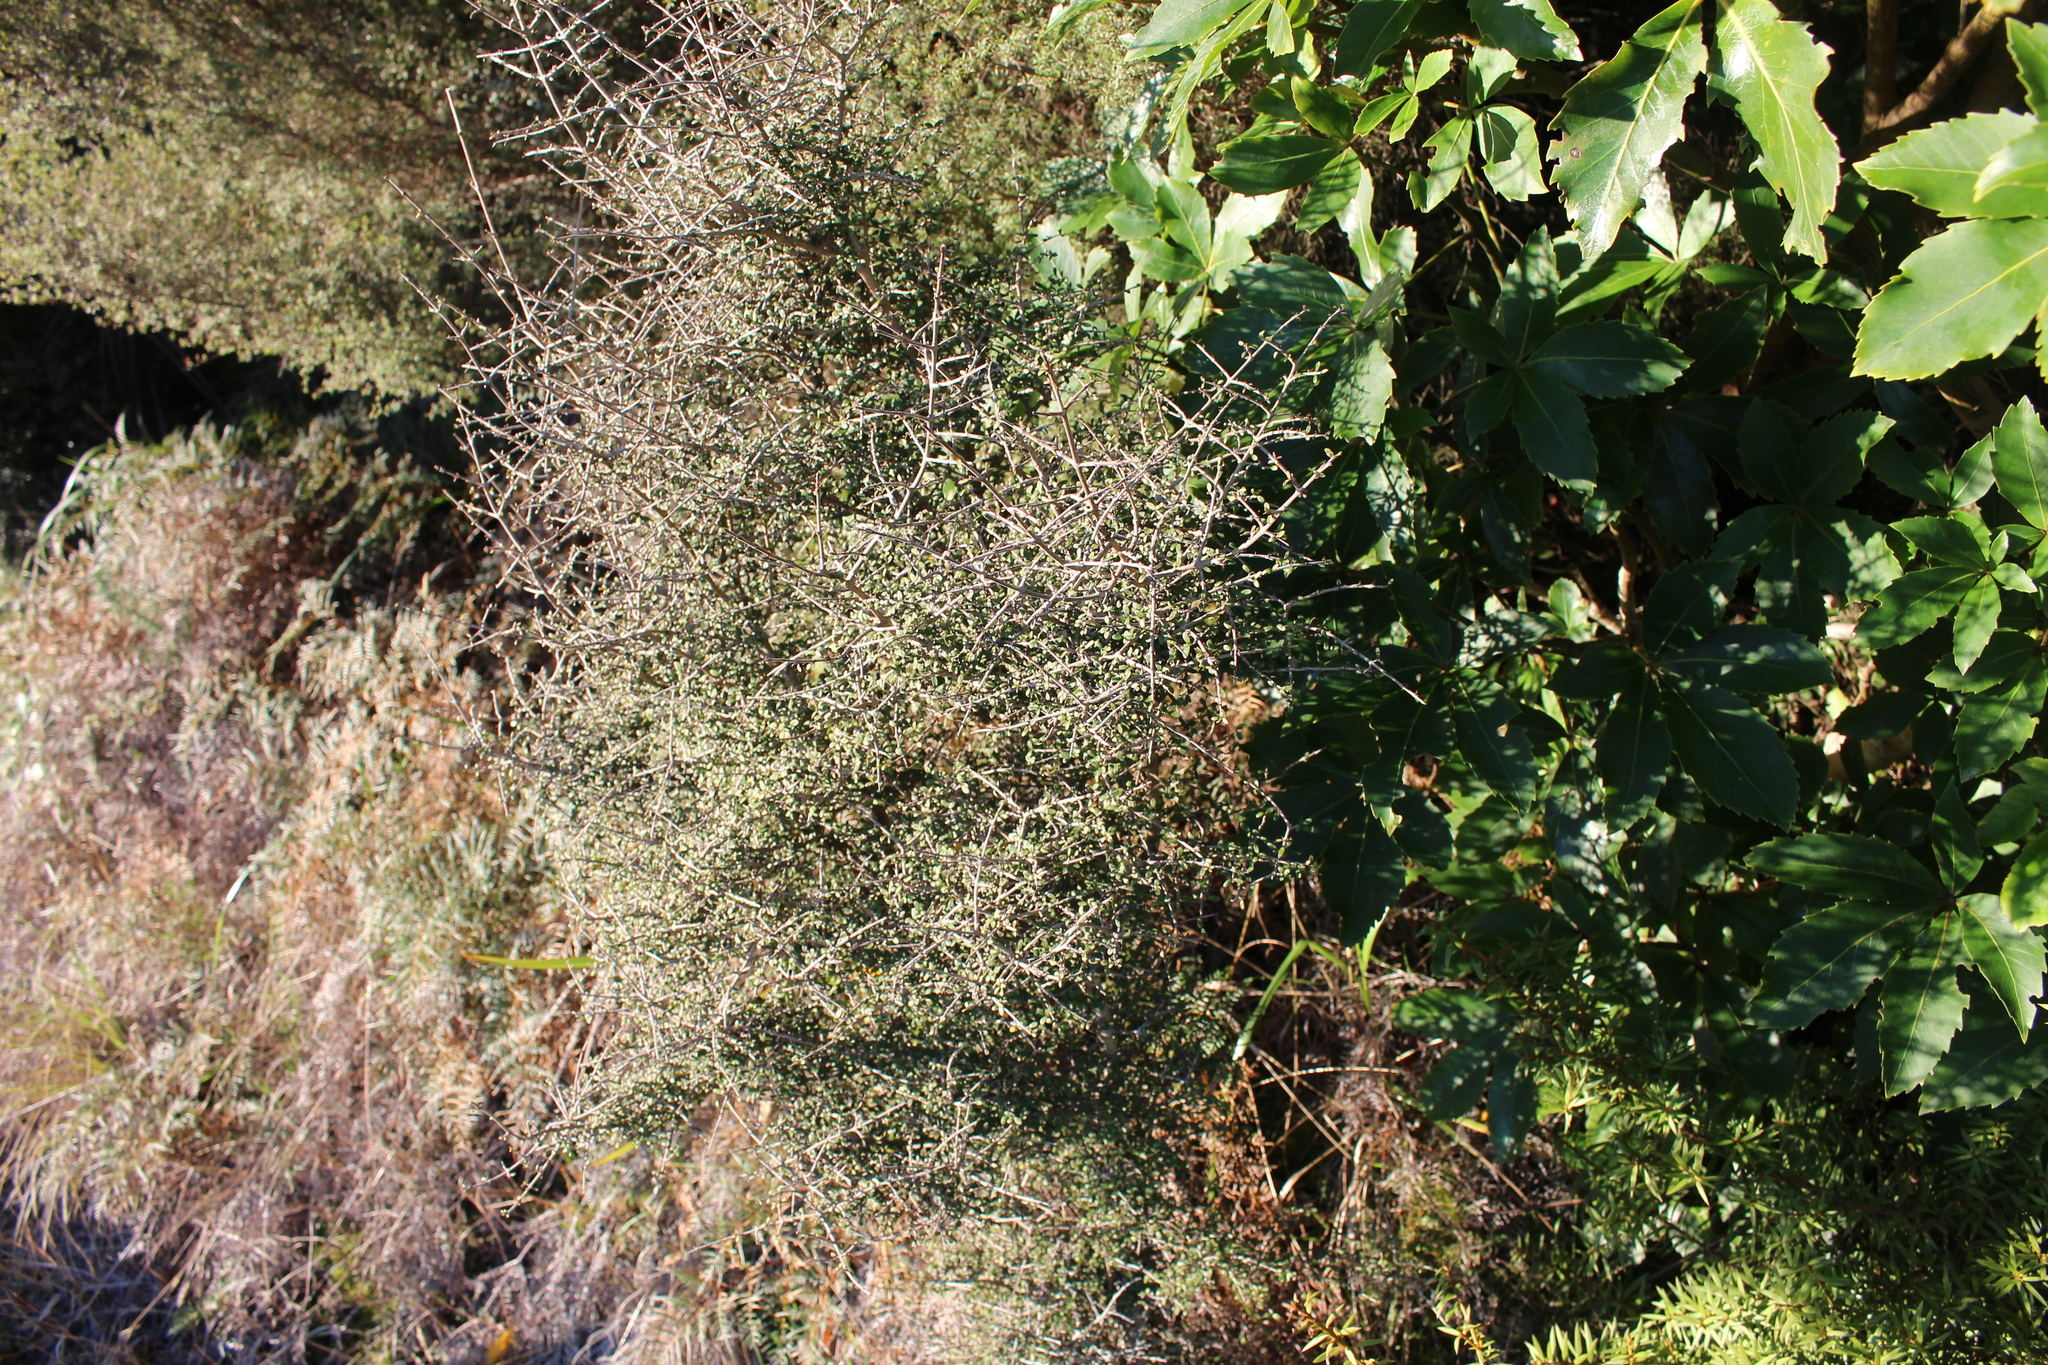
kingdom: Plantae
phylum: Tracheophyta
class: Magnoliopsida
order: Gentianales
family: Rubiaceae
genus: Coprosma
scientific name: Coprosma dumosa
